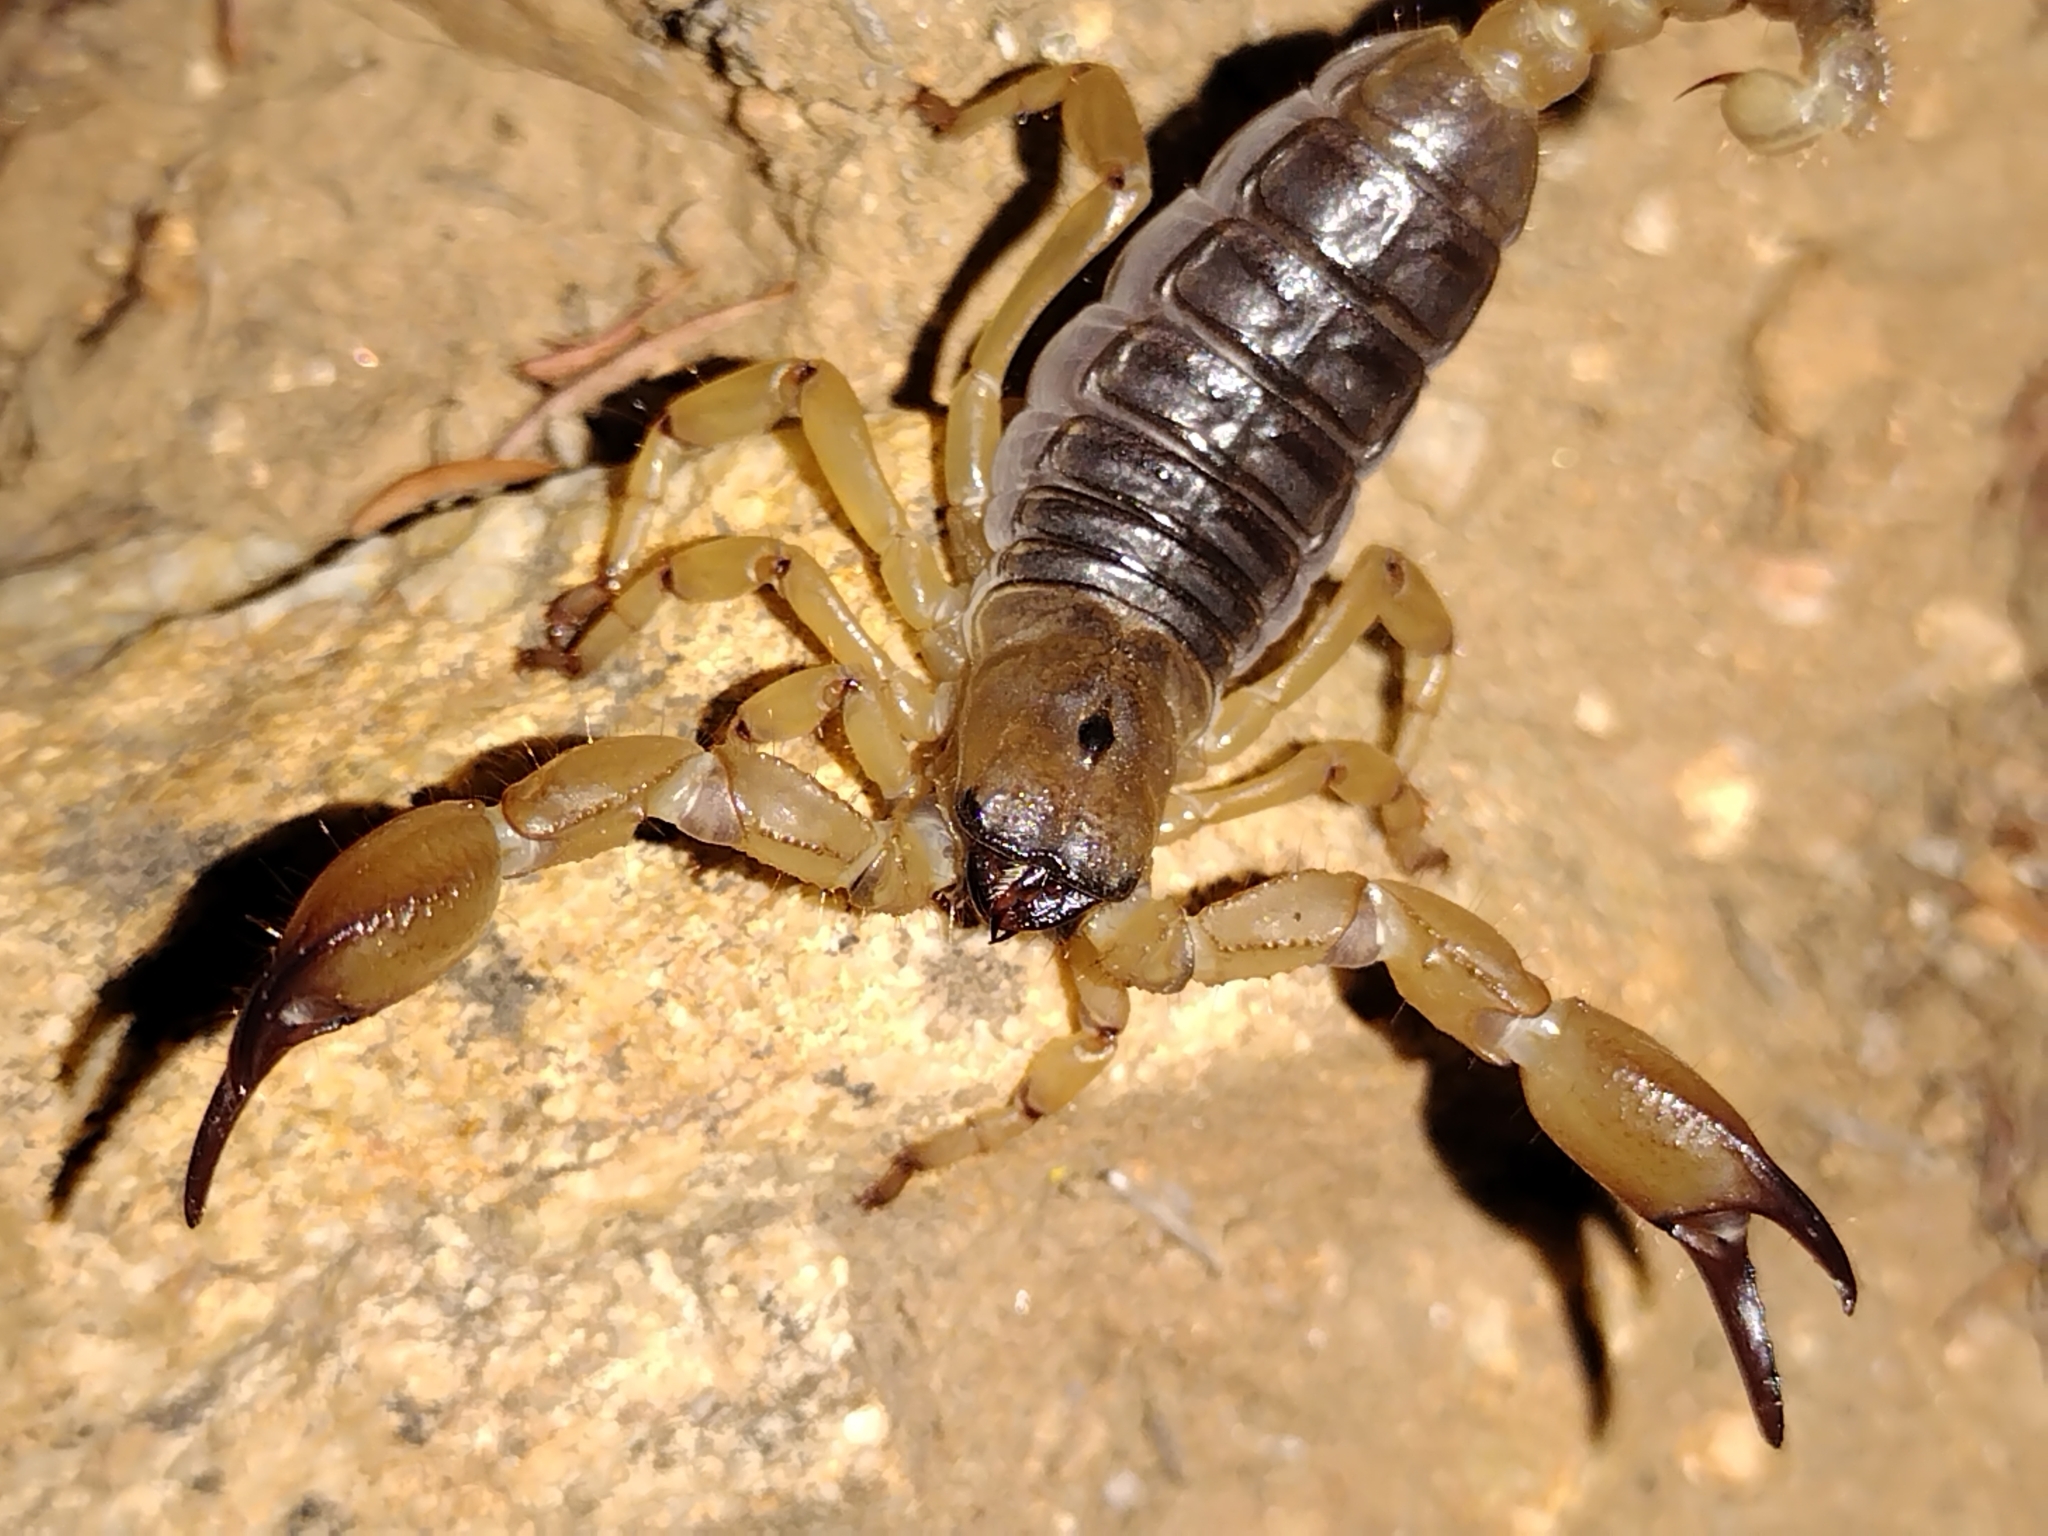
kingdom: Animalia
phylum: Arthropoda
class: Arachnida
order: Scorpiones
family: Chactidae
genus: Anuroctonus
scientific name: Anuroctonus pococki
